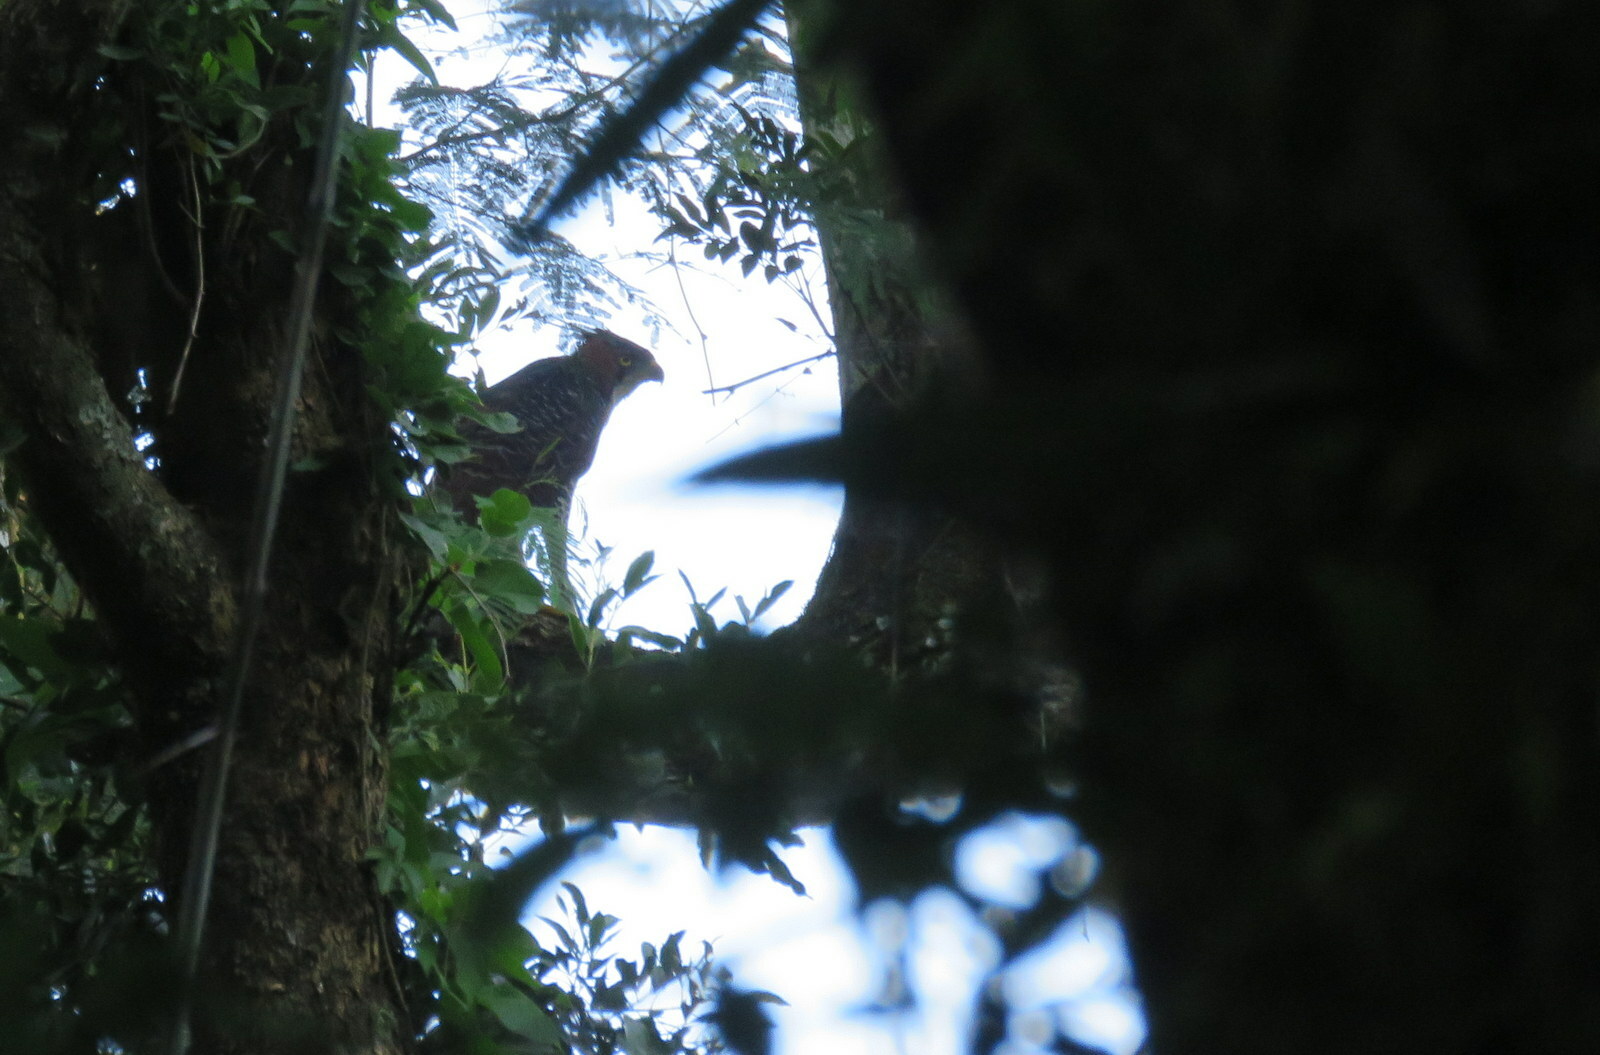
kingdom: Animalia
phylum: Chordata
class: Aves
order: Accipitriformes
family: Accipitridae
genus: Spizaetus
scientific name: Spizaetus ornatus
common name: Ornate hawk-eagle
